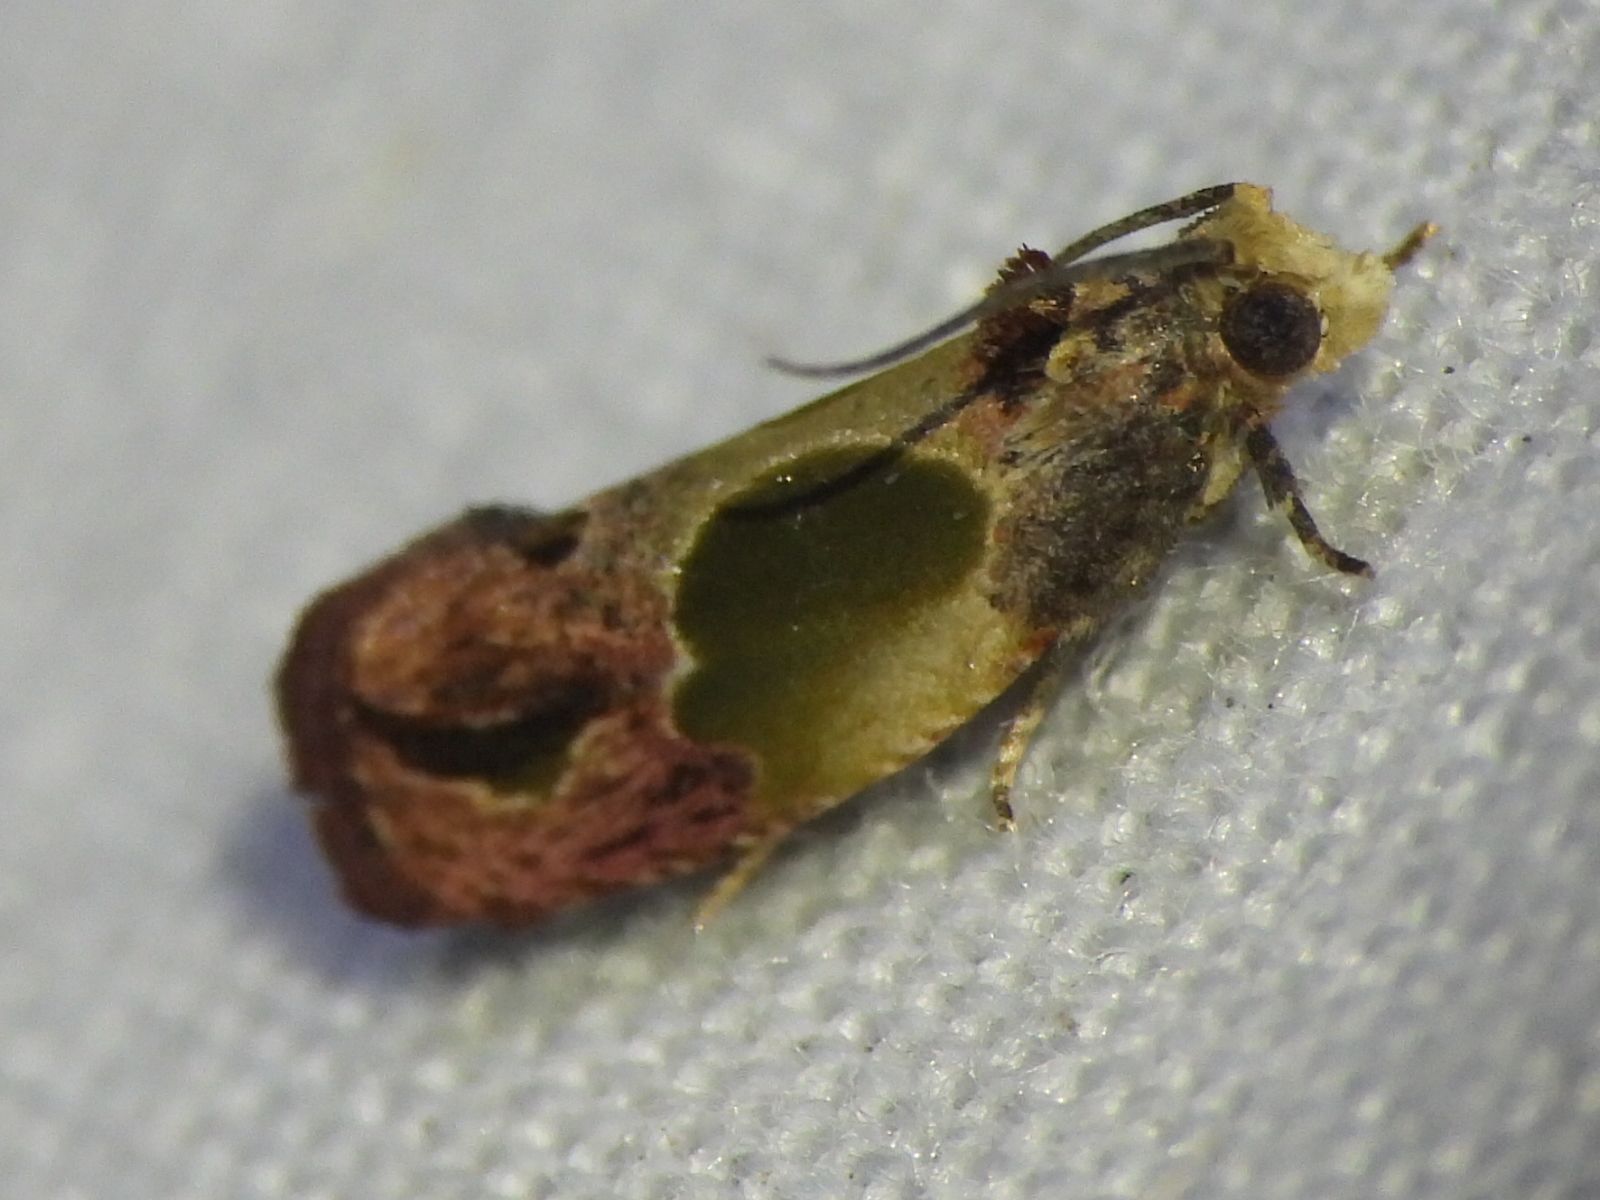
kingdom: Animalia
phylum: Arthropoda
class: Insecta
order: Lepidoptera
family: Tortricidae
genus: Eumarozia
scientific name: Eumarozia malachitana
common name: Sculptured moth
